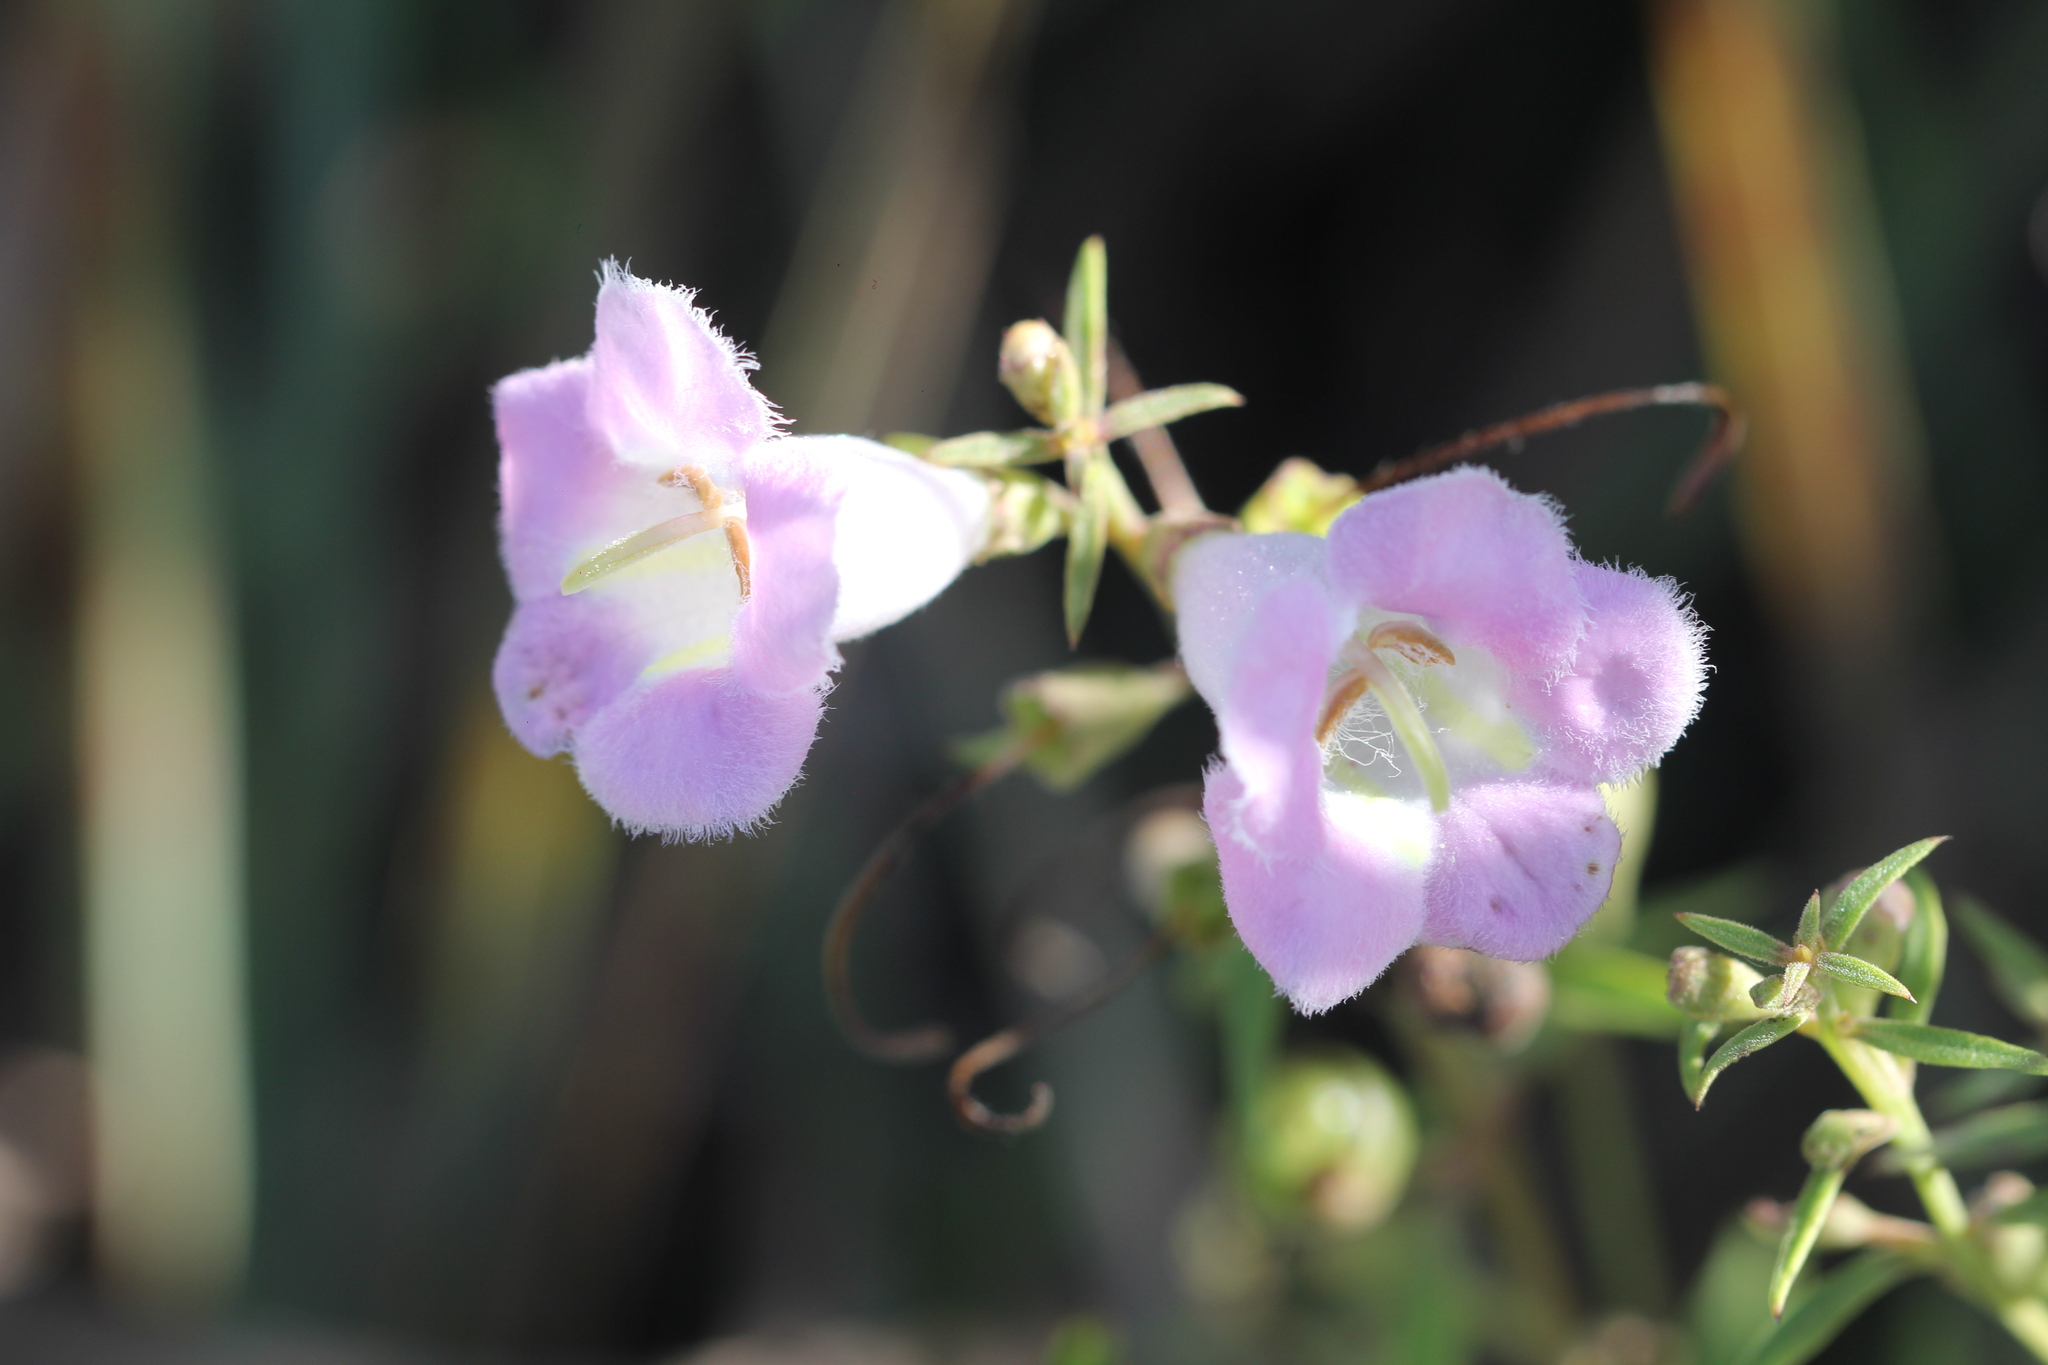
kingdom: Plantae
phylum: Tracheophyta
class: Magnoliopsida
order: Lamiales
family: Orobanchaceae
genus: Agalinis
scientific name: Agalinis genistifolia
